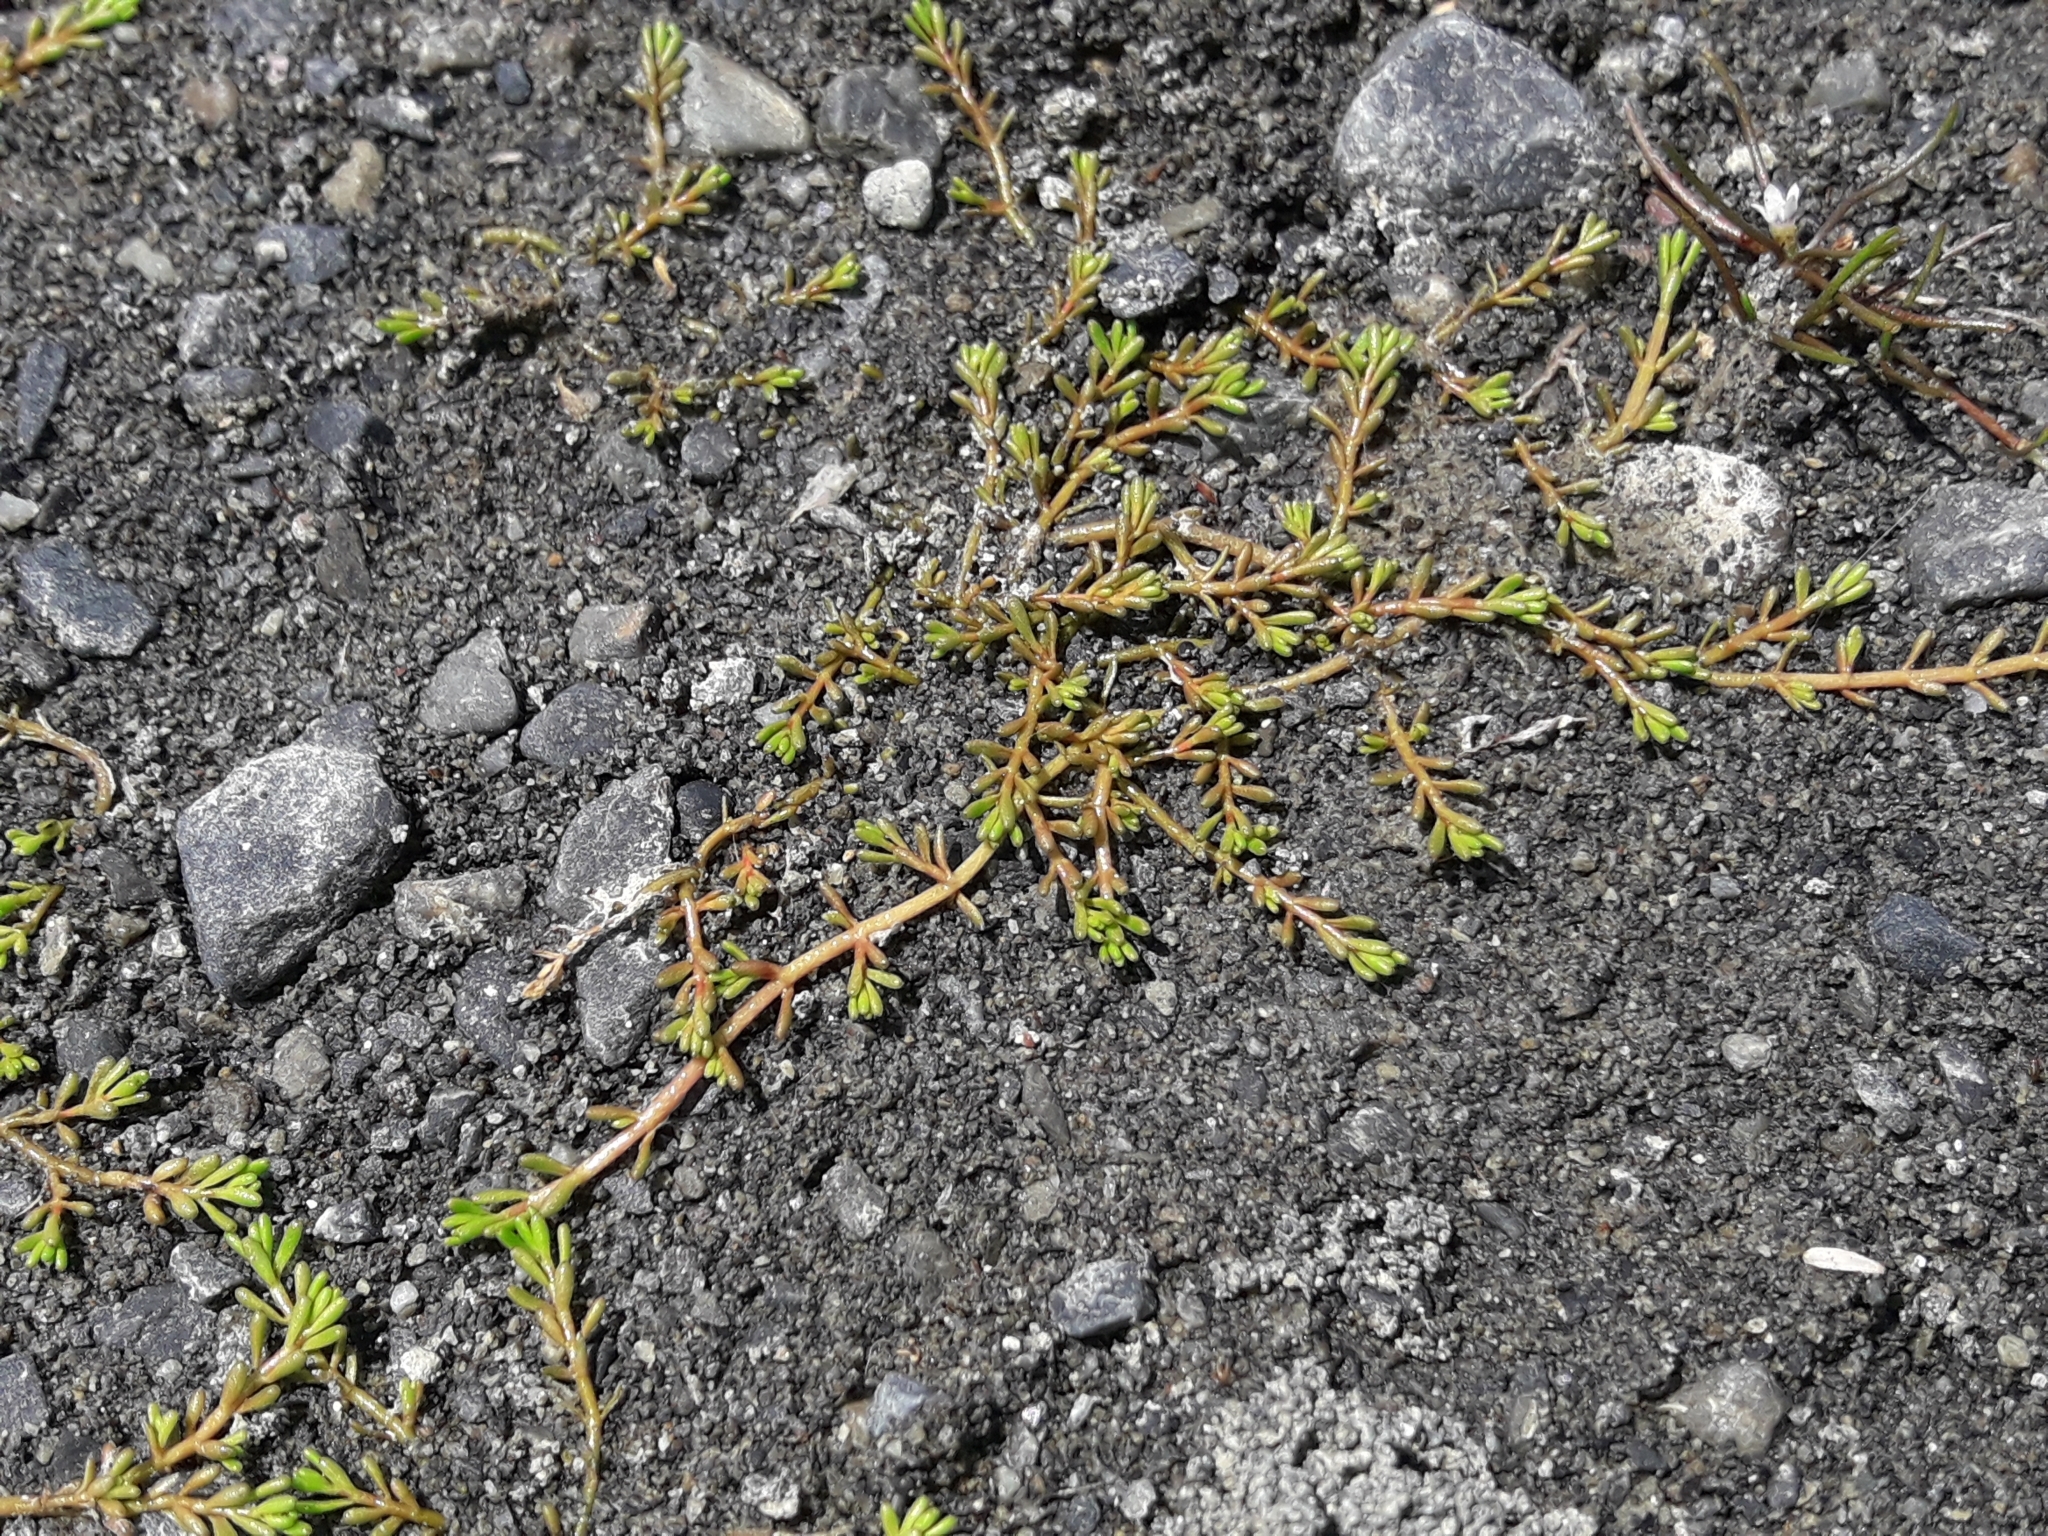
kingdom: Plantae
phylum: Tracheophyta
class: Magnoliopsida
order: Saxifragales
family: Haloragaceae
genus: Myriophyllum
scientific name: Myriophyllum votschii
